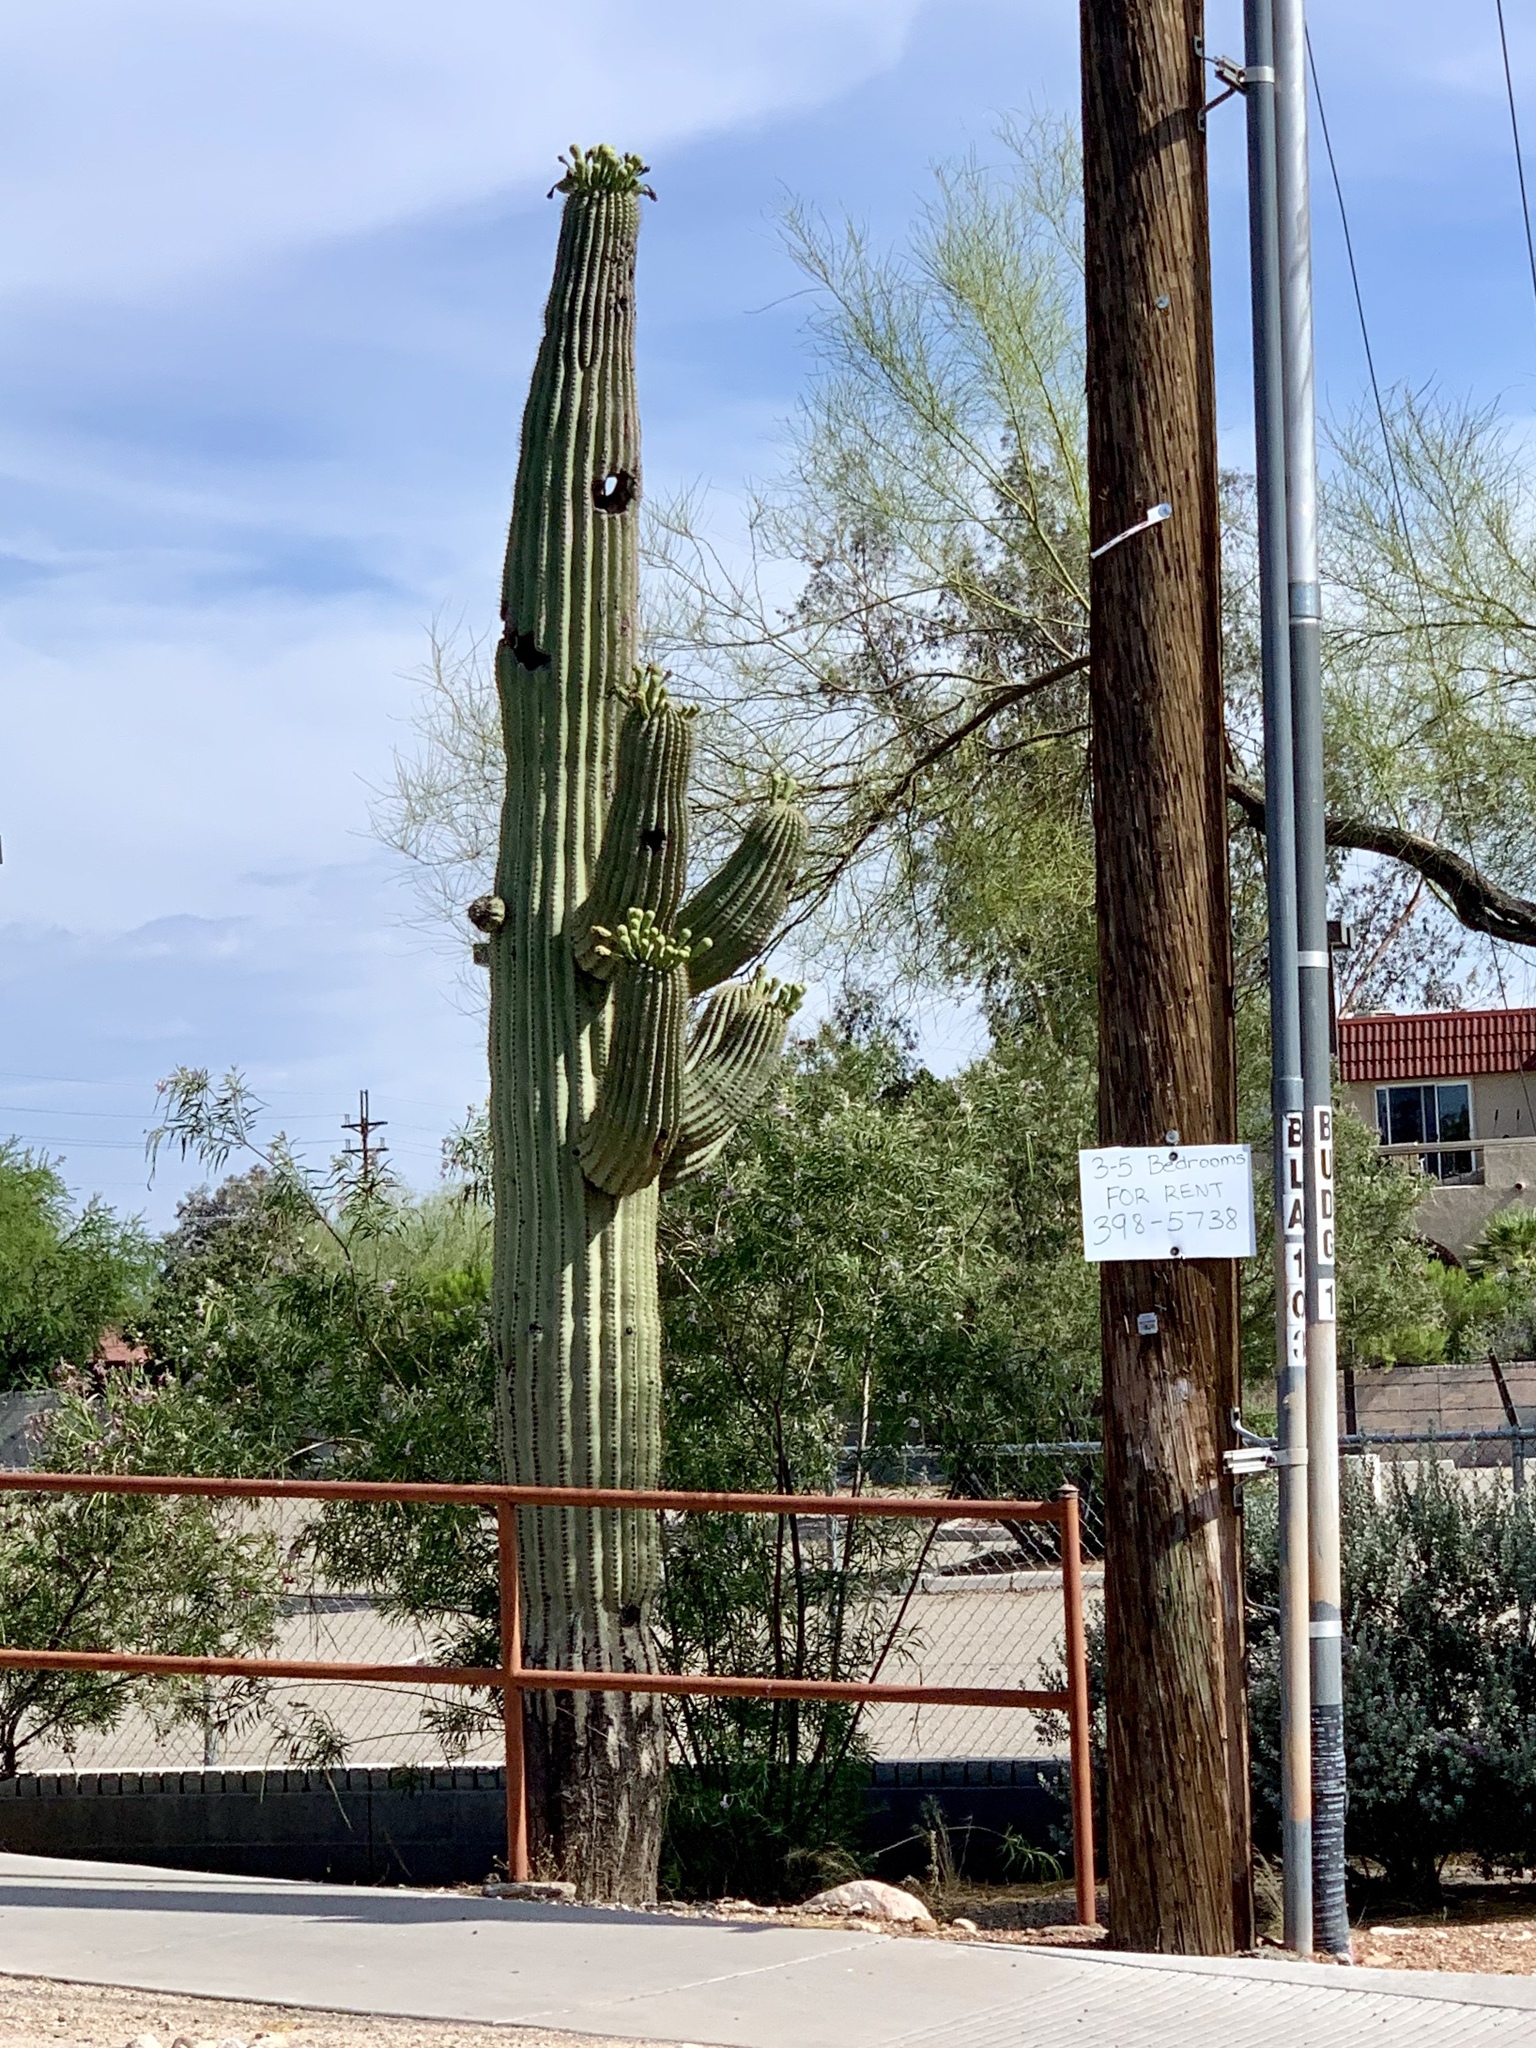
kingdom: Plantae
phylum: Tracheophyta
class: Magnoliopsida
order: Caryophyllales
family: Cactaceae
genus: Carnegiea
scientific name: Carnegiea gigantea
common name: Saguaro
